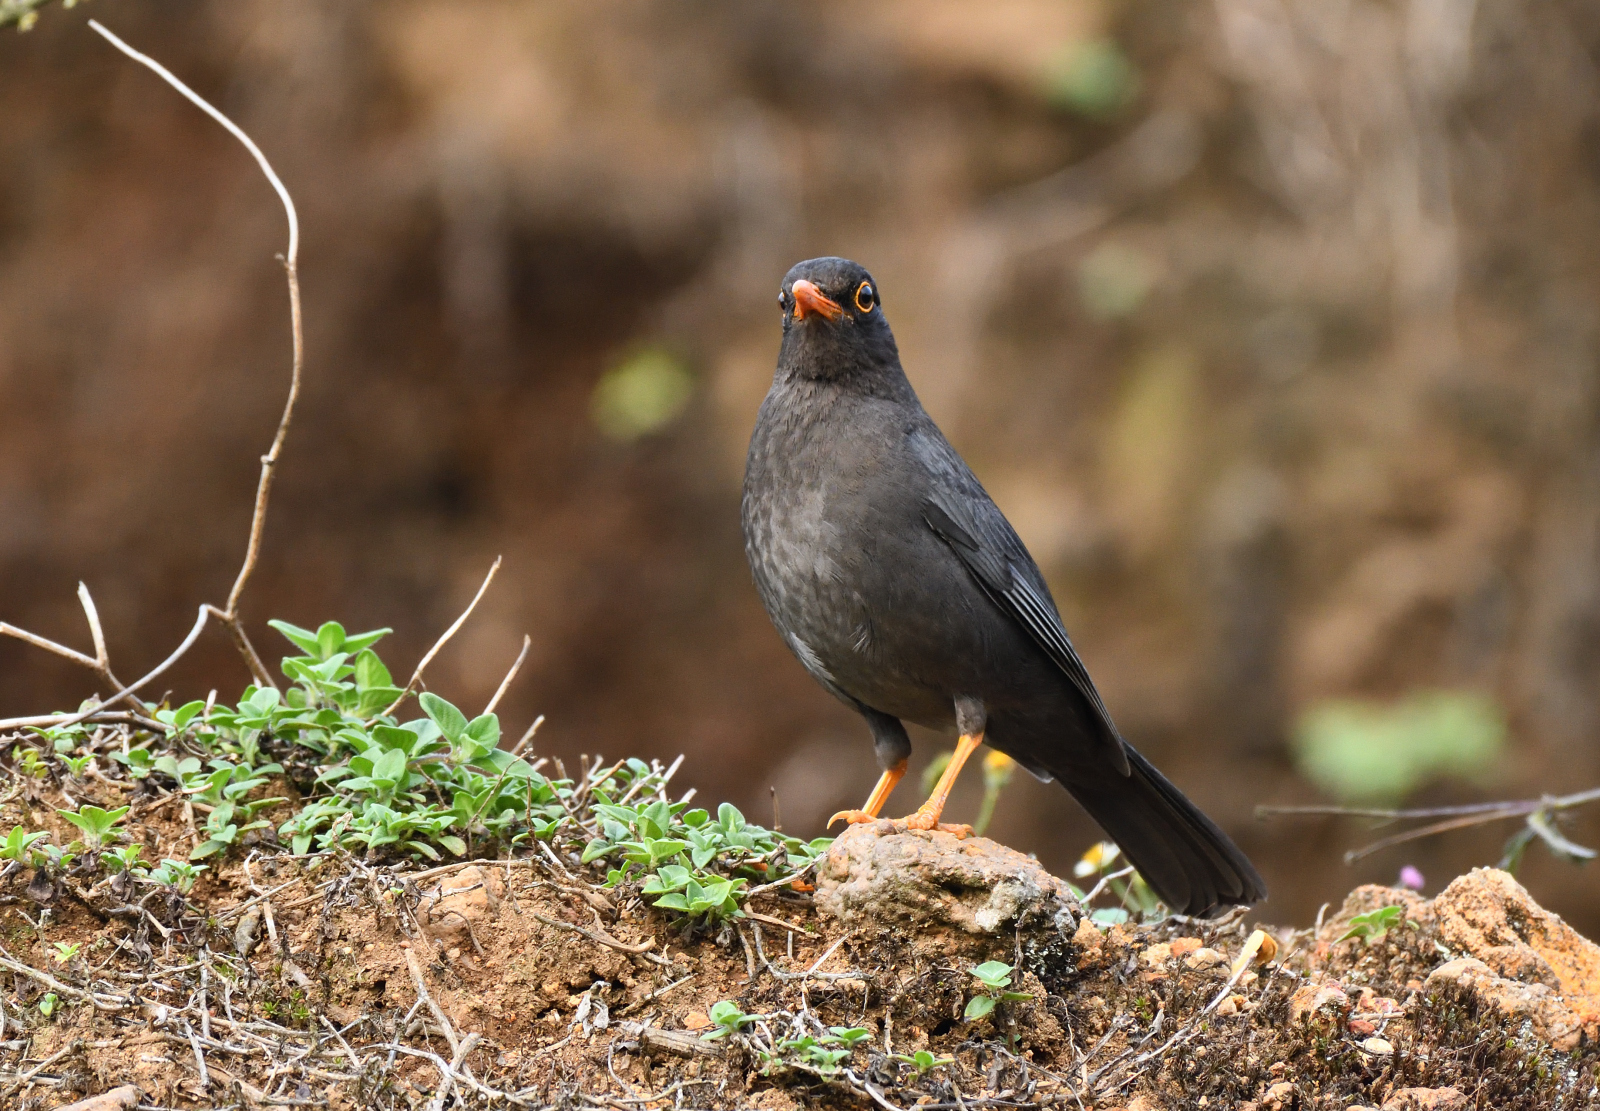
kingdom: Animalia
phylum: Chordata
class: Aves
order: Passeriformes
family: Turdidae
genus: Turdus
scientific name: Turdus simillimus
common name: Indian blackbird
